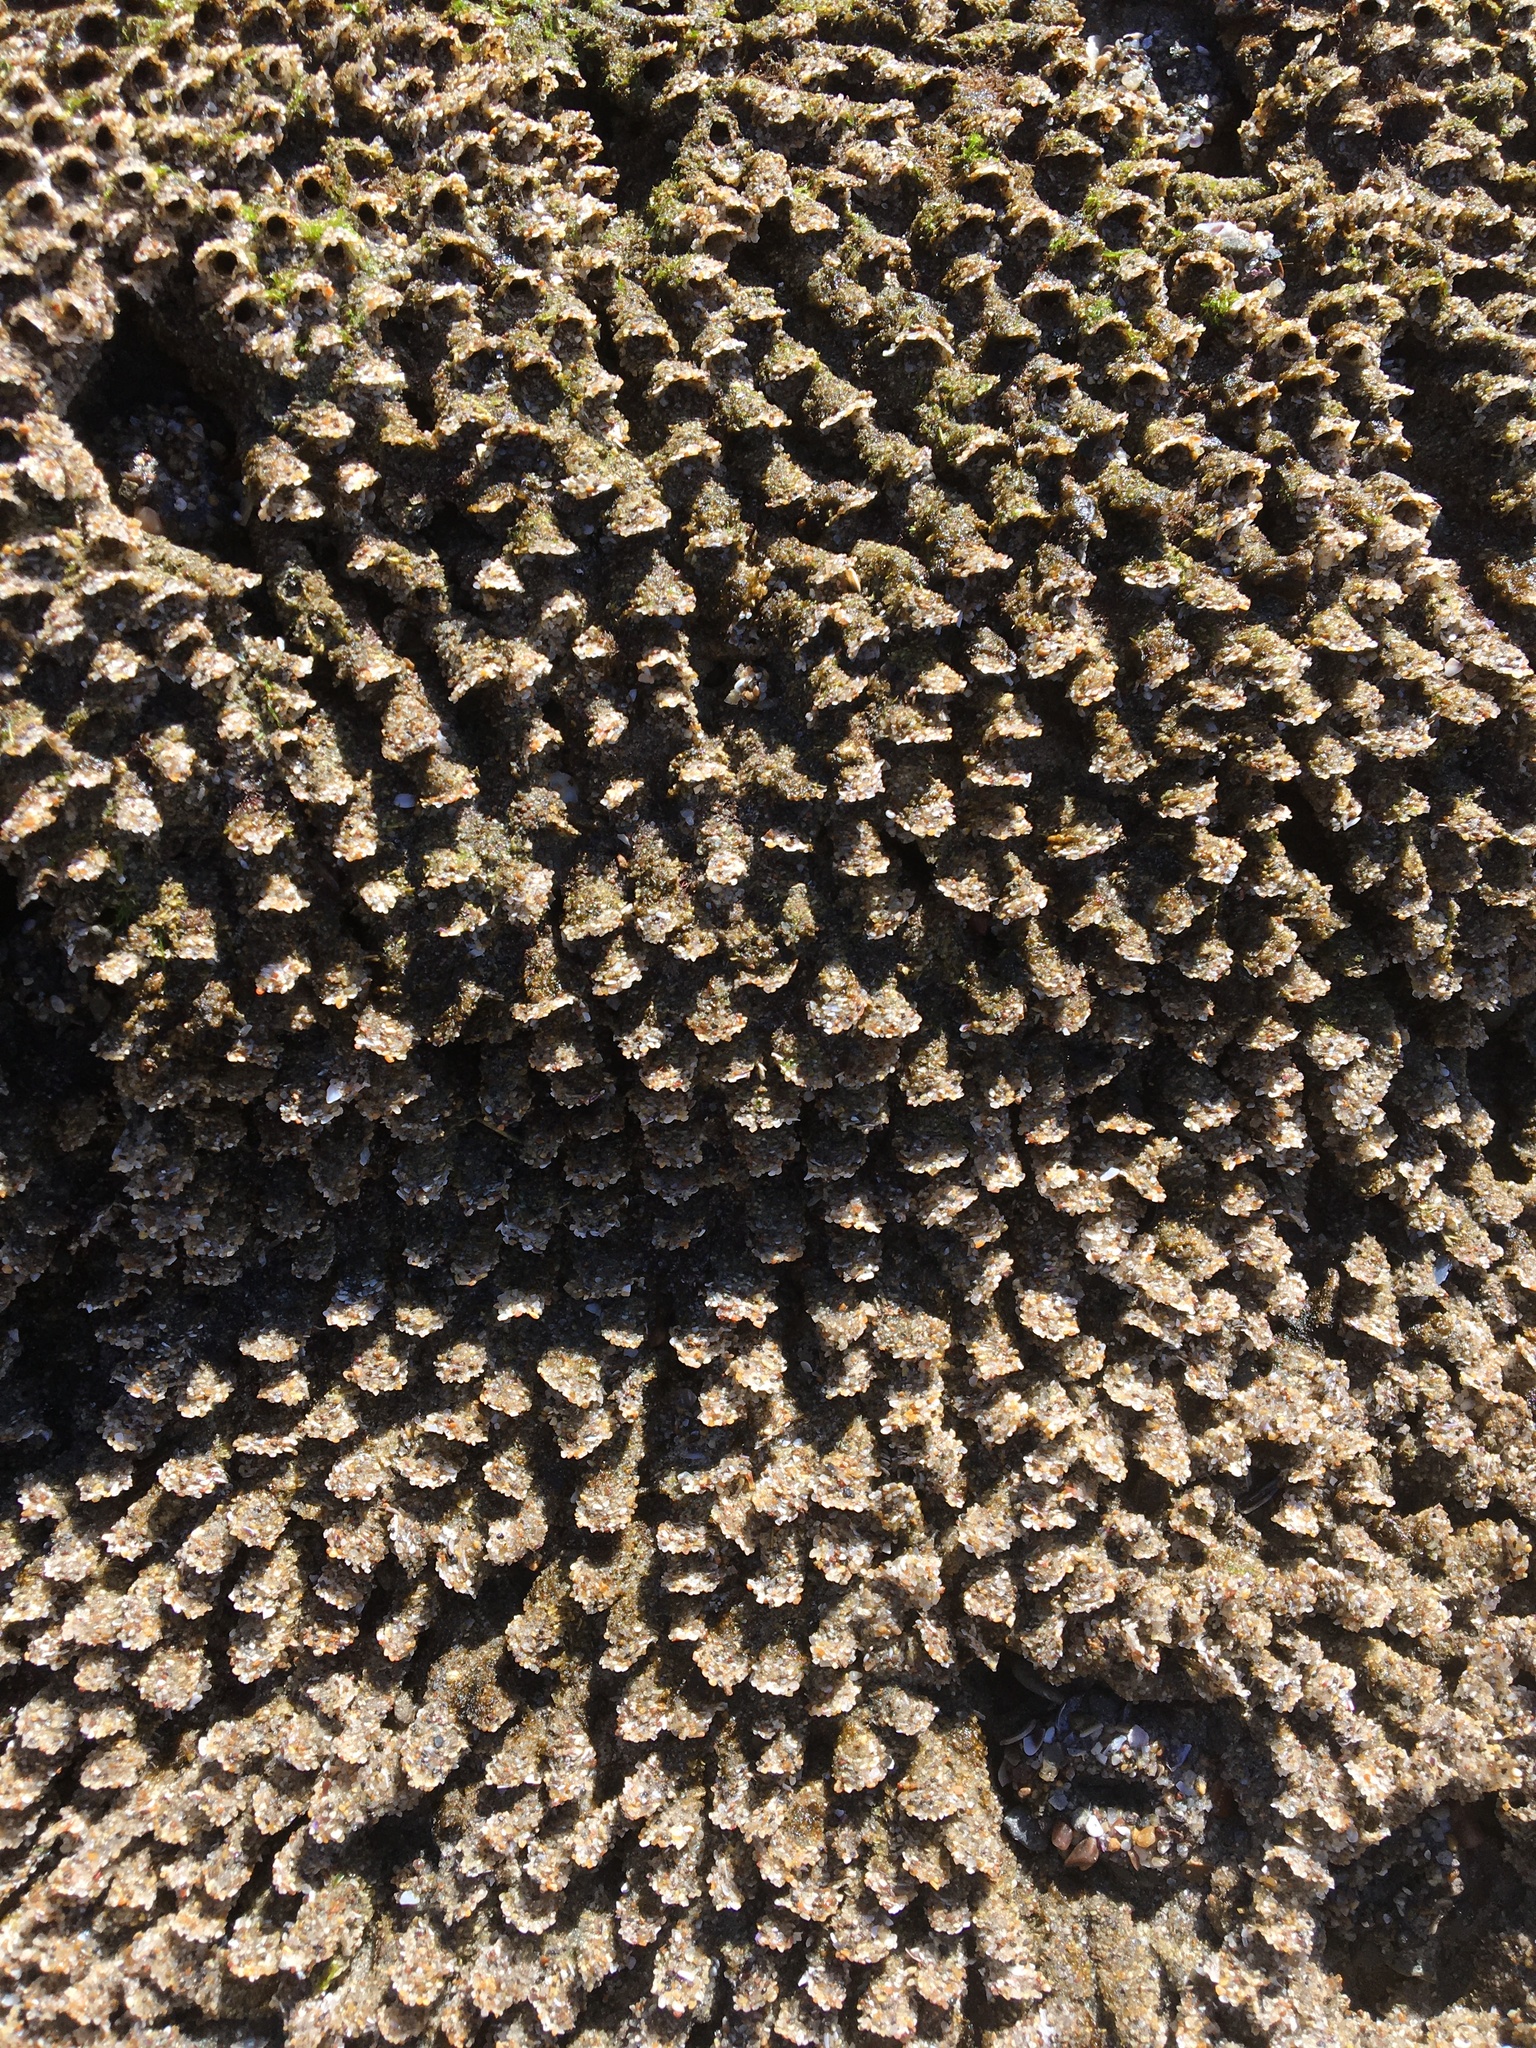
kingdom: Animalia
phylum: Annelida
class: Polychaeta
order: Sabellida
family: Sabellariidae
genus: Phragmatopoma
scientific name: Phragmatopoma californica
